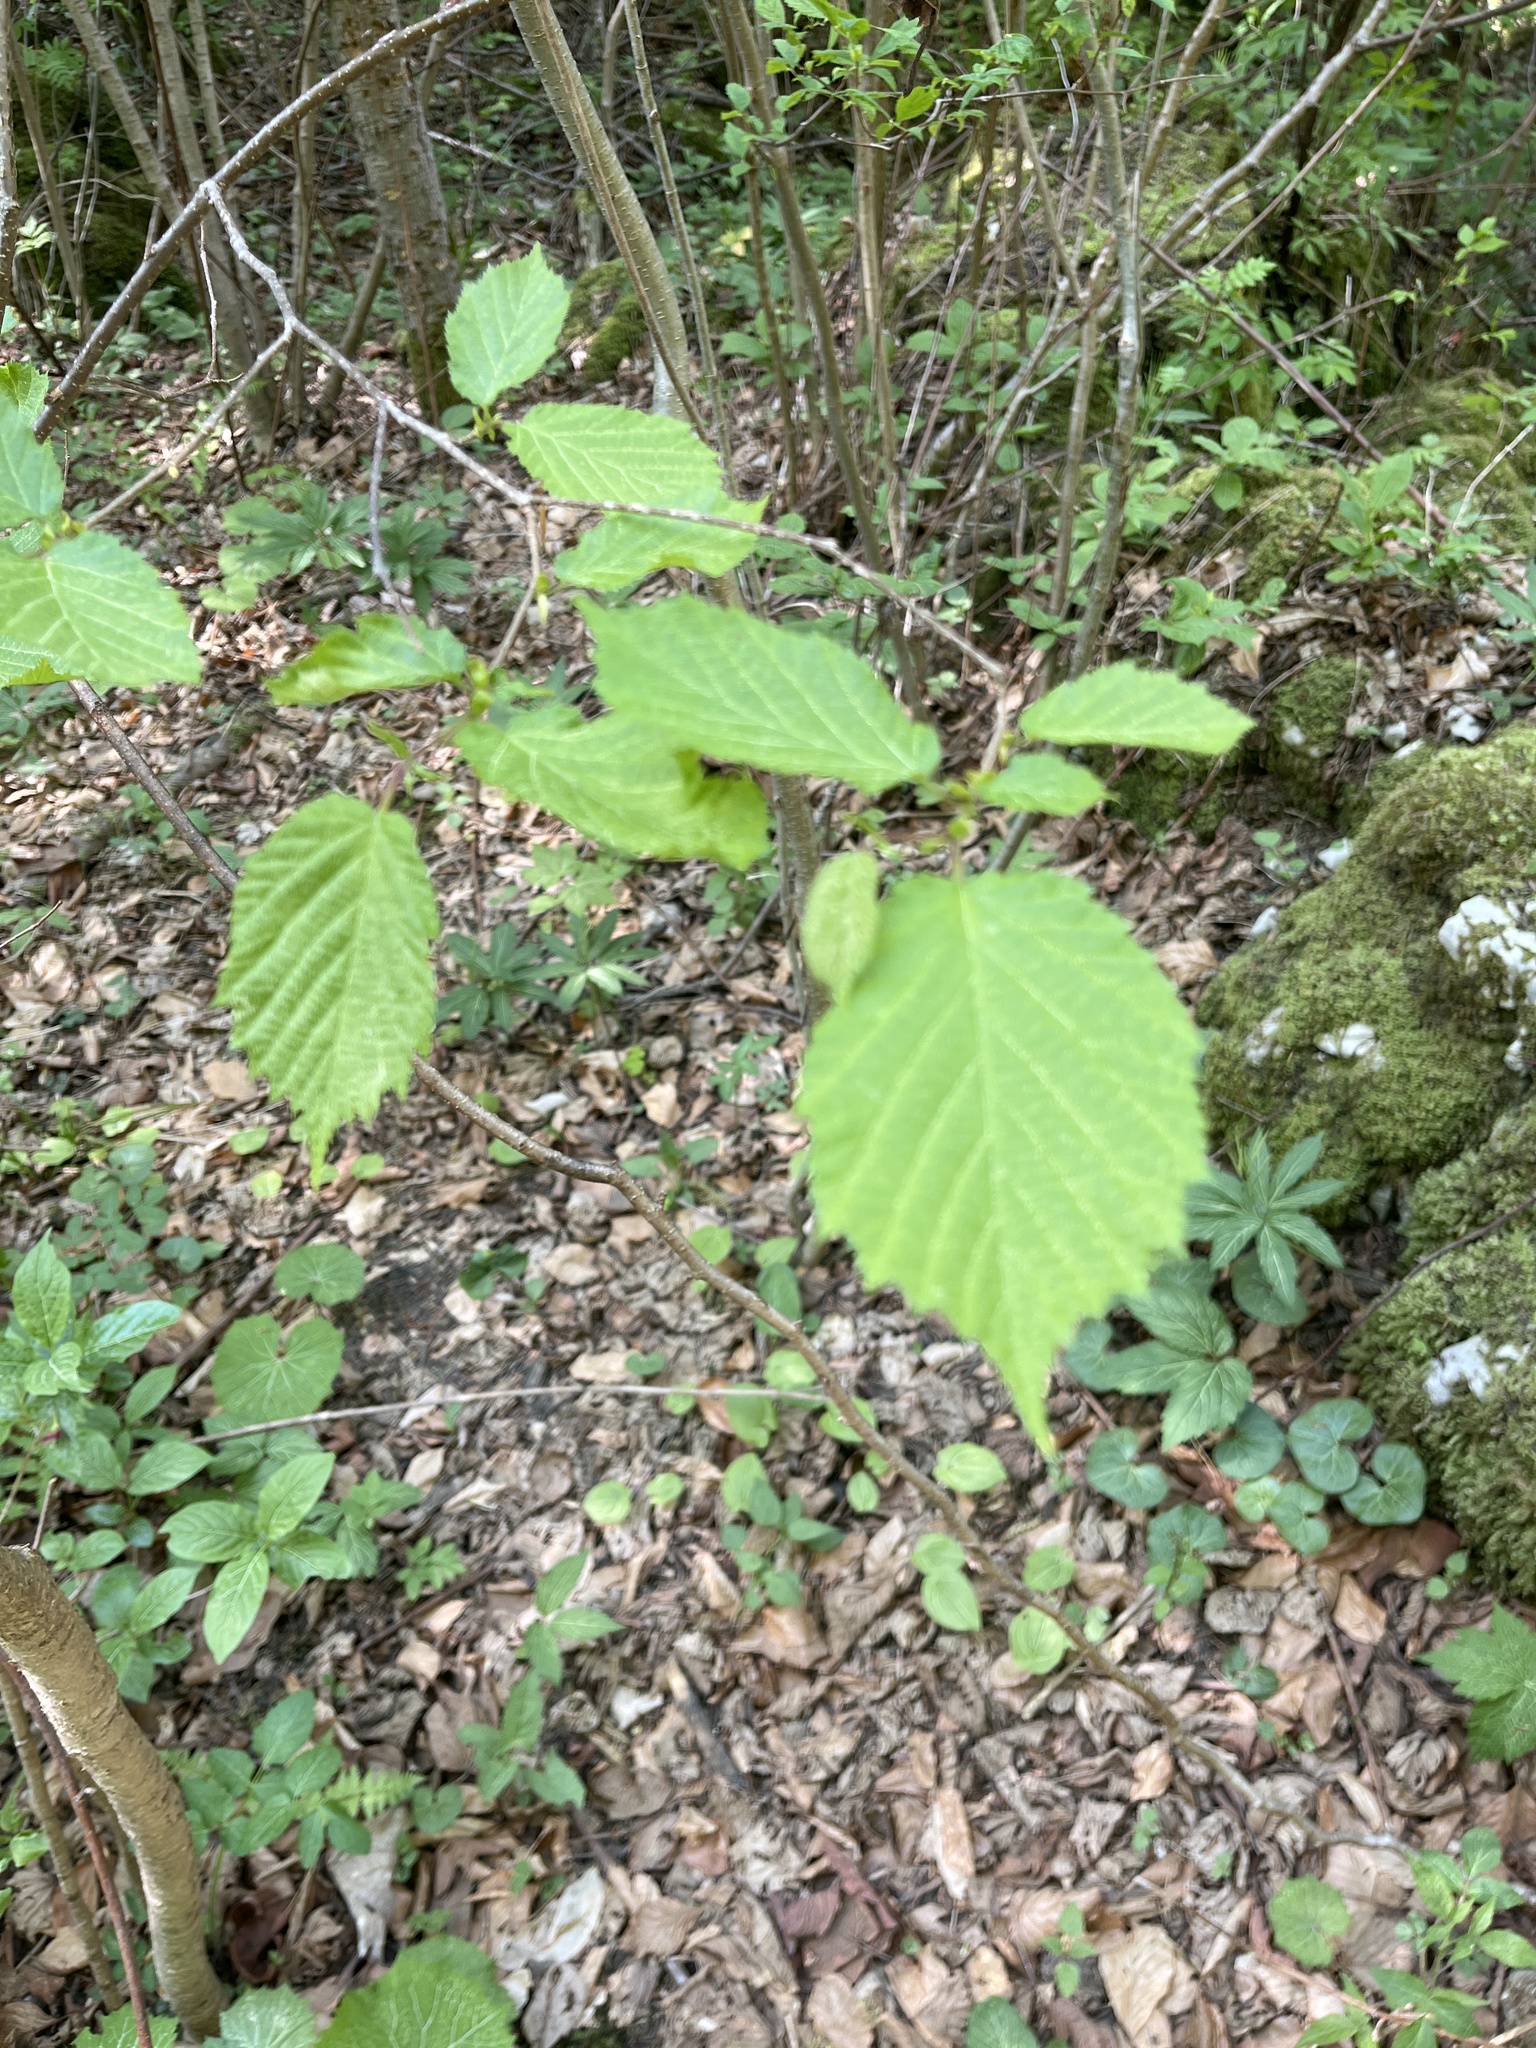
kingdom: Plantae
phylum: Tracheophyta
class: Magnoliopsida
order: Fagales
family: Betulaceae
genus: Corylus
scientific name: Corylus avellana
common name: European hazel
